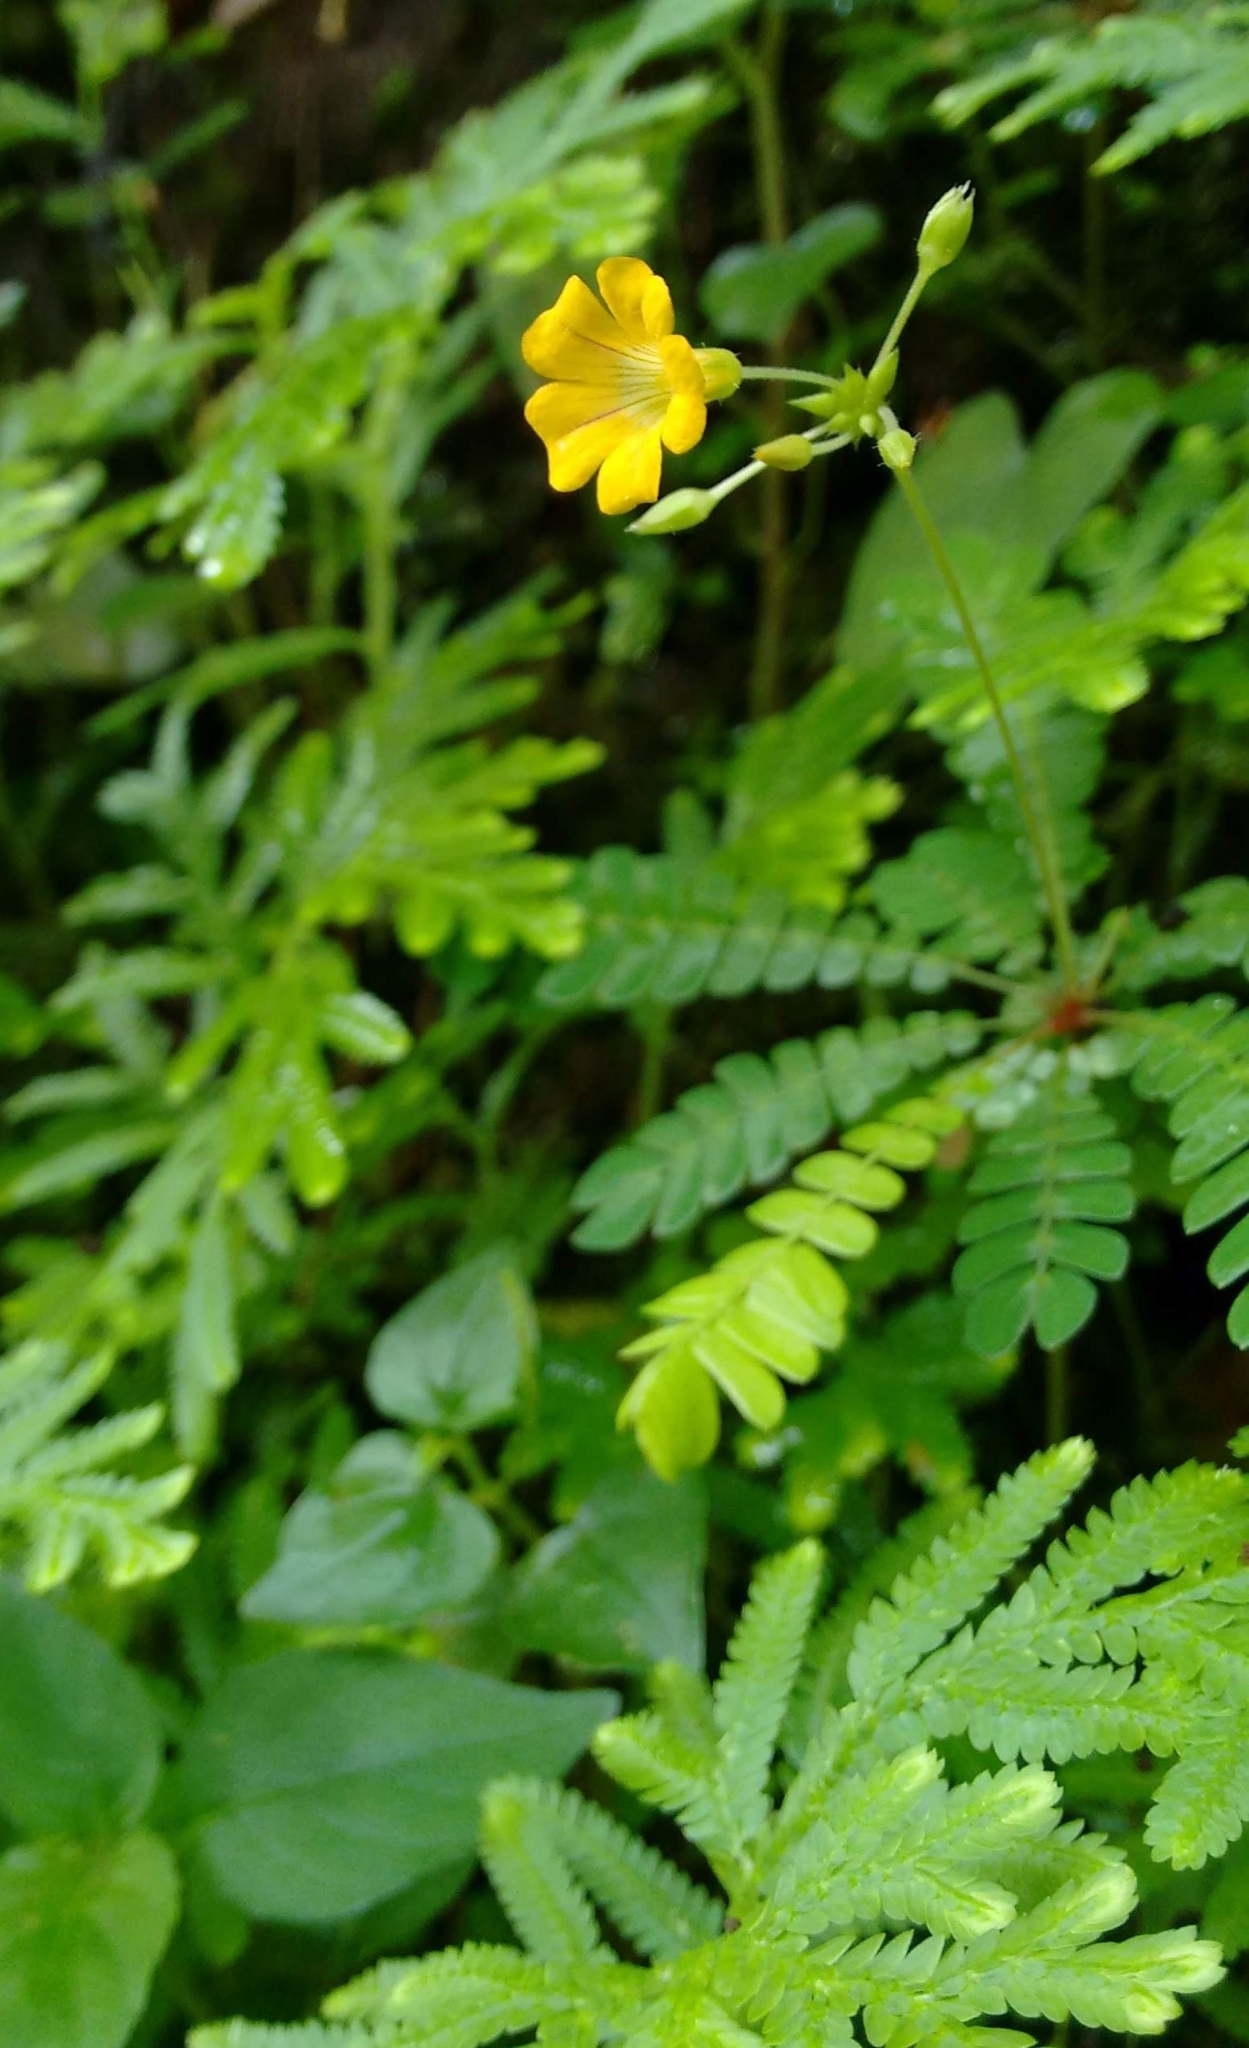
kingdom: Plantae
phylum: Tracheophyta
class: Magnoliopsida
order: Oxalidales
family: Oxalidaceae
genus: Biophytum
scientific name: Biophytum reinwardtii
